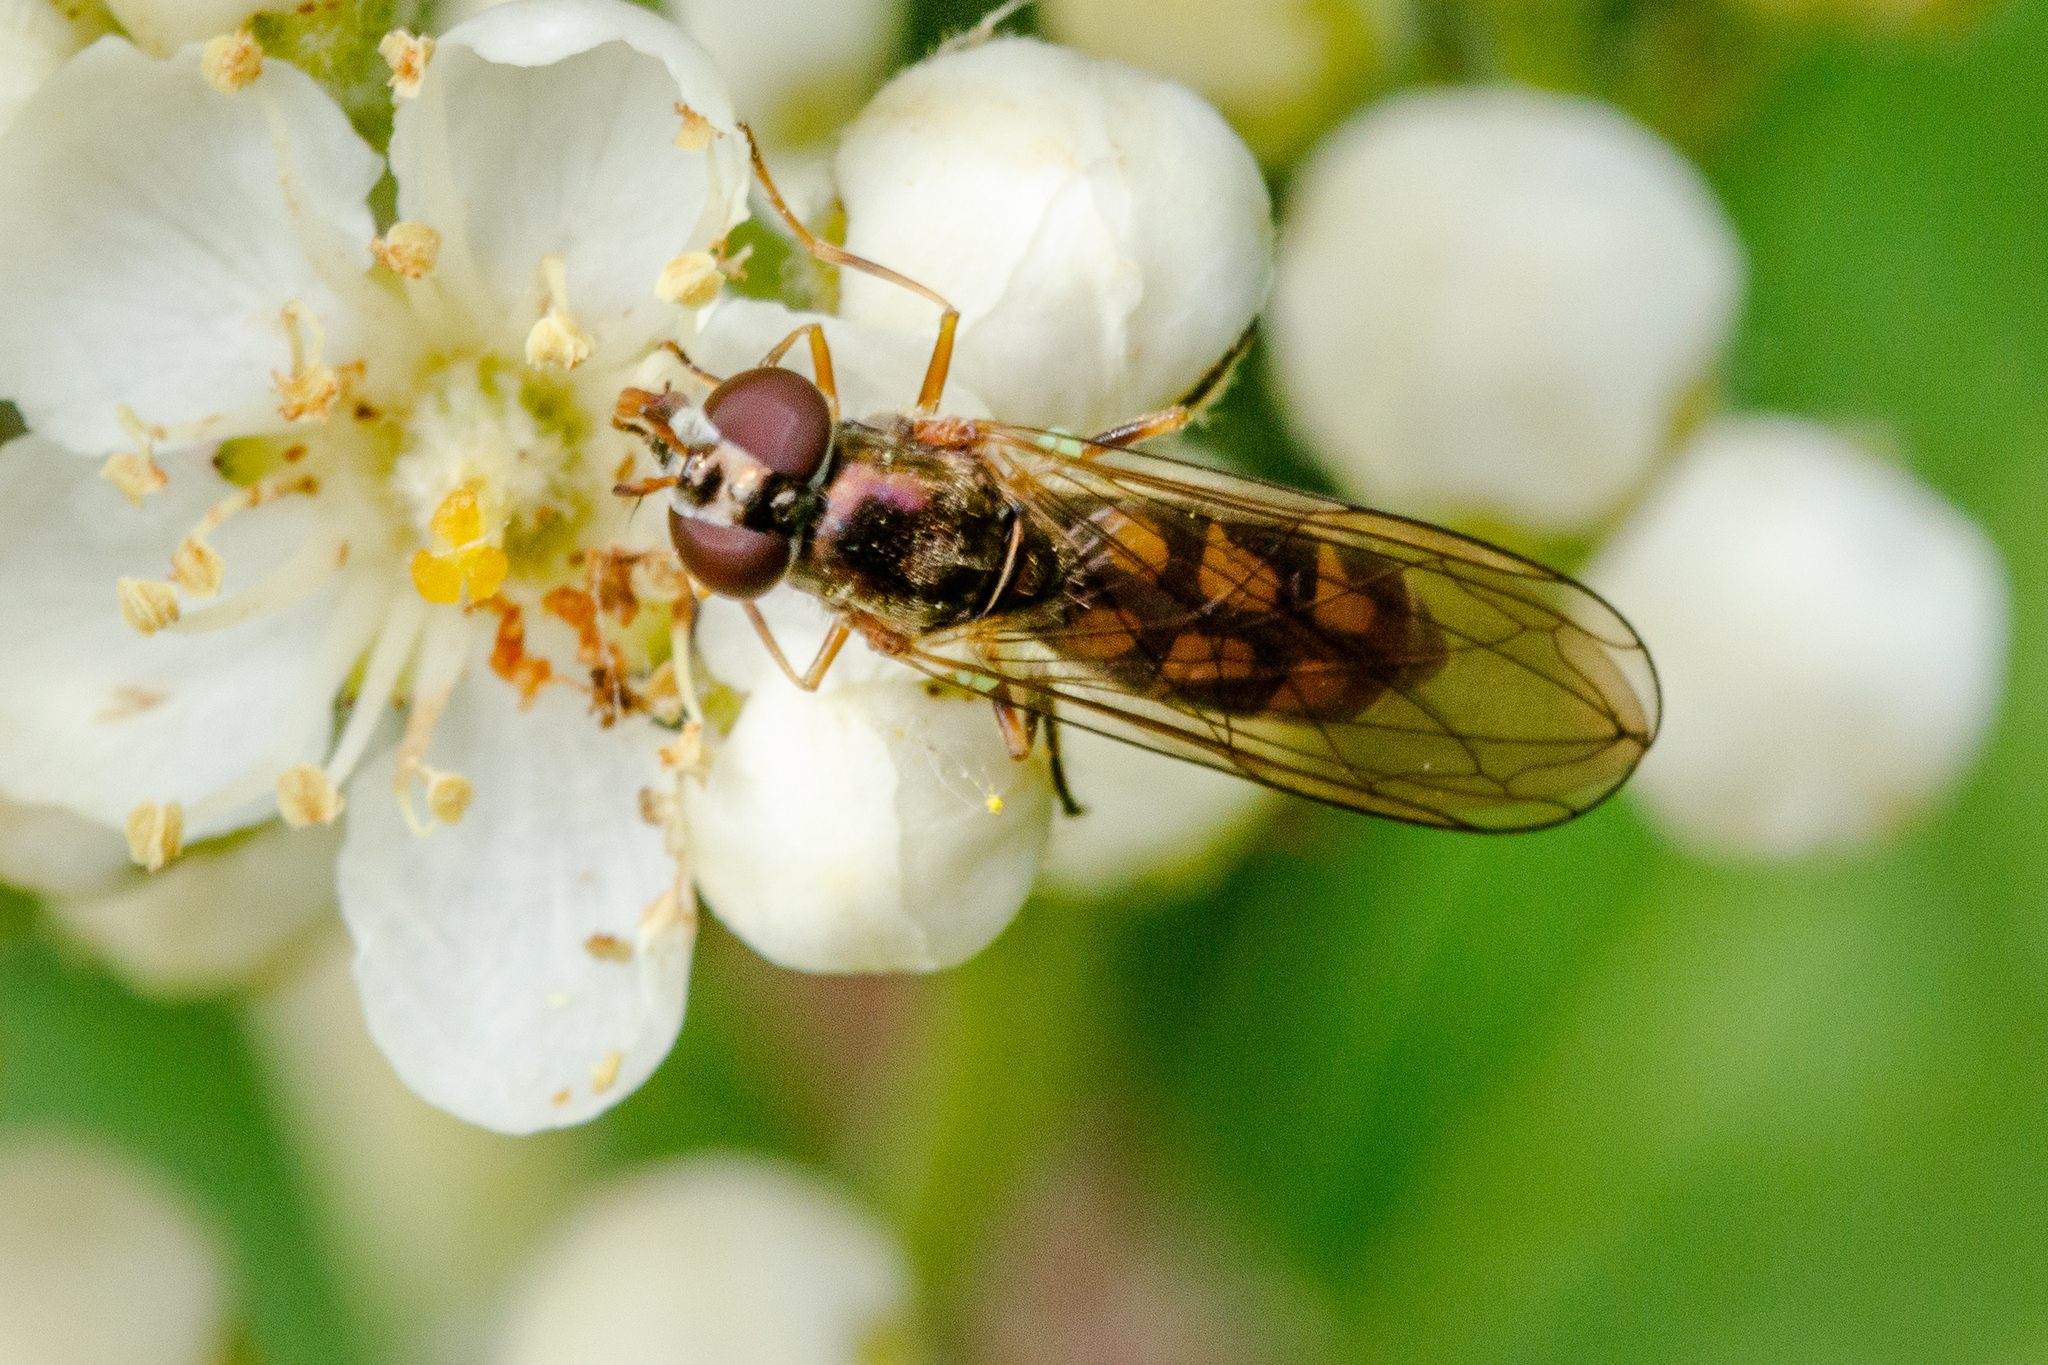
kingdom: Animalia
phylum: Arthropoda
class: Insecta
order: Diptera
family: Syrphidae
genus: Melanostoma
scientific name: Melanostoma scalare
